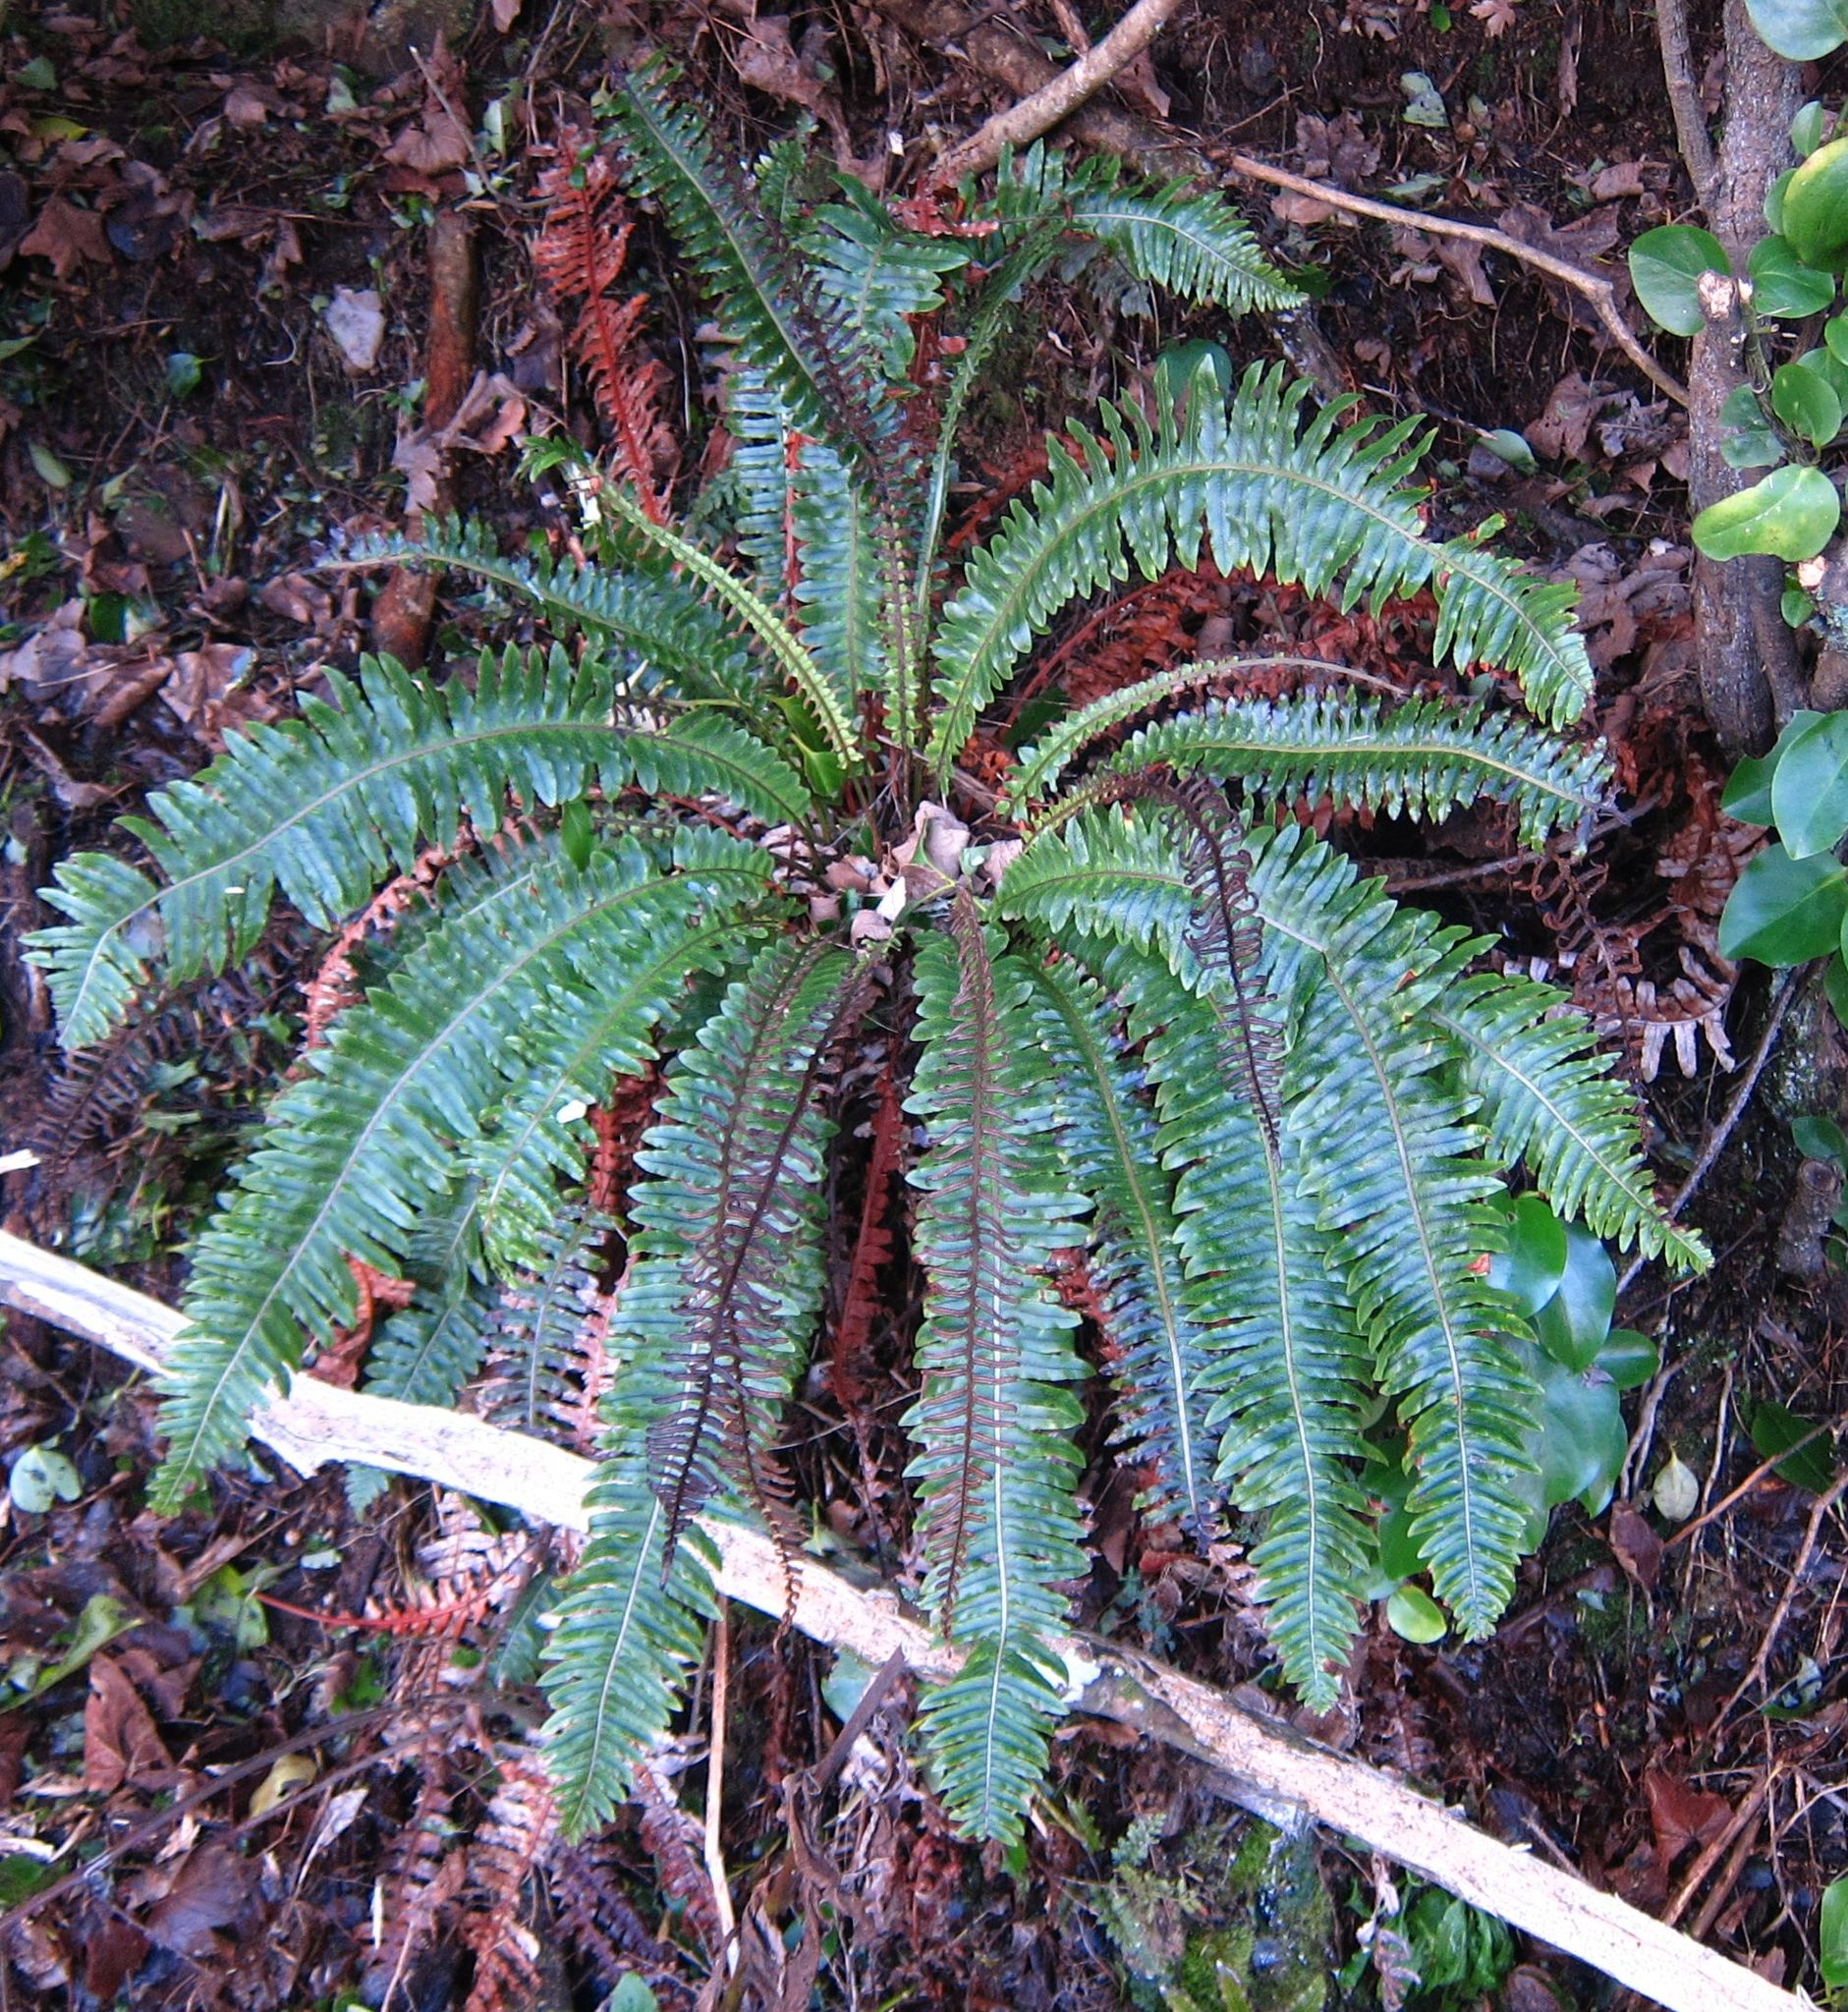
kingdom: Plantae
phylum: Tracheophyta
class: Polypodiopsida
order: Polypodiales
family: Blechnaceae
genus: Lomaria
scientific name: Lomaria discolor
